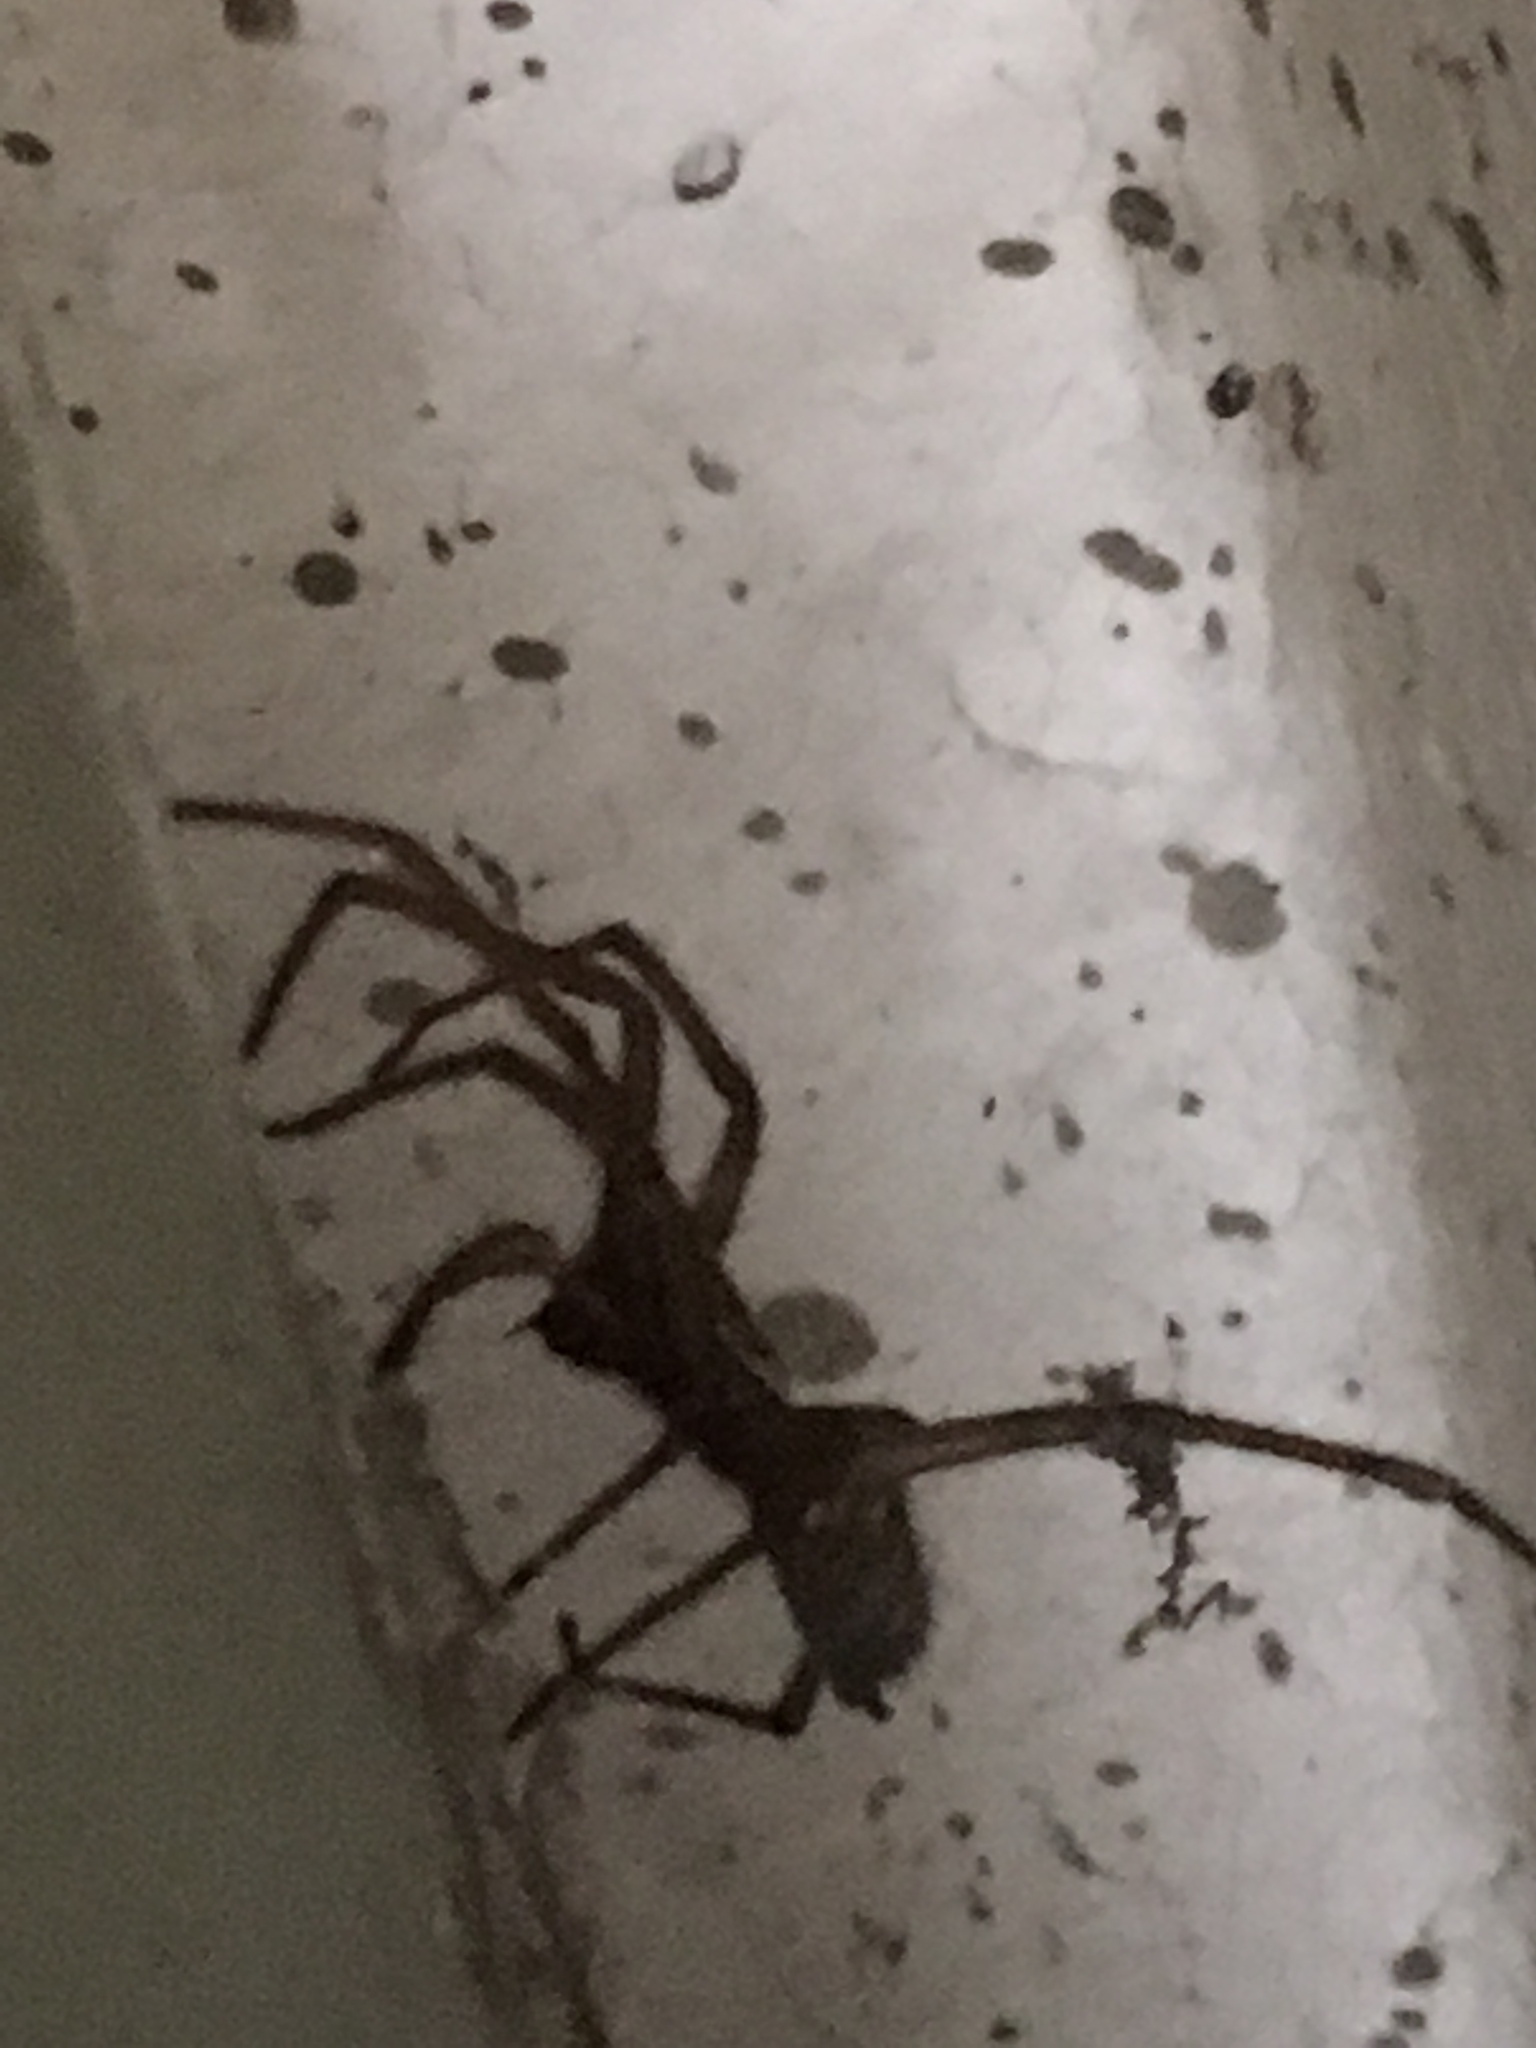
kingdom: Animalia
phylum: Arthropoda
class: Arachnida
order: Araneae
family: Agelenidae
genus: Eratigena
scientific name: Eratigena atrica
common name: Giant house spider
